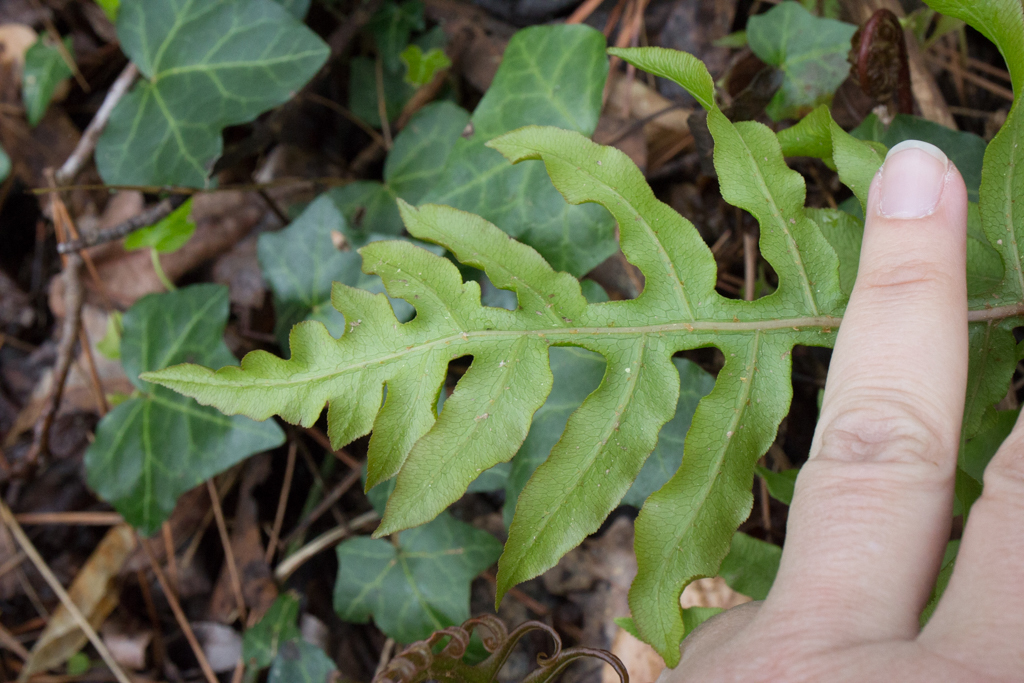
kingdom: Plantae
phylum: Tracheophyta
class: Polypodiopsida
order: Polypodiales
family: Blechnaceae
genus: Lorinseria
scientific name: Lorinseria areolata
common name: Dwarf chain fern
